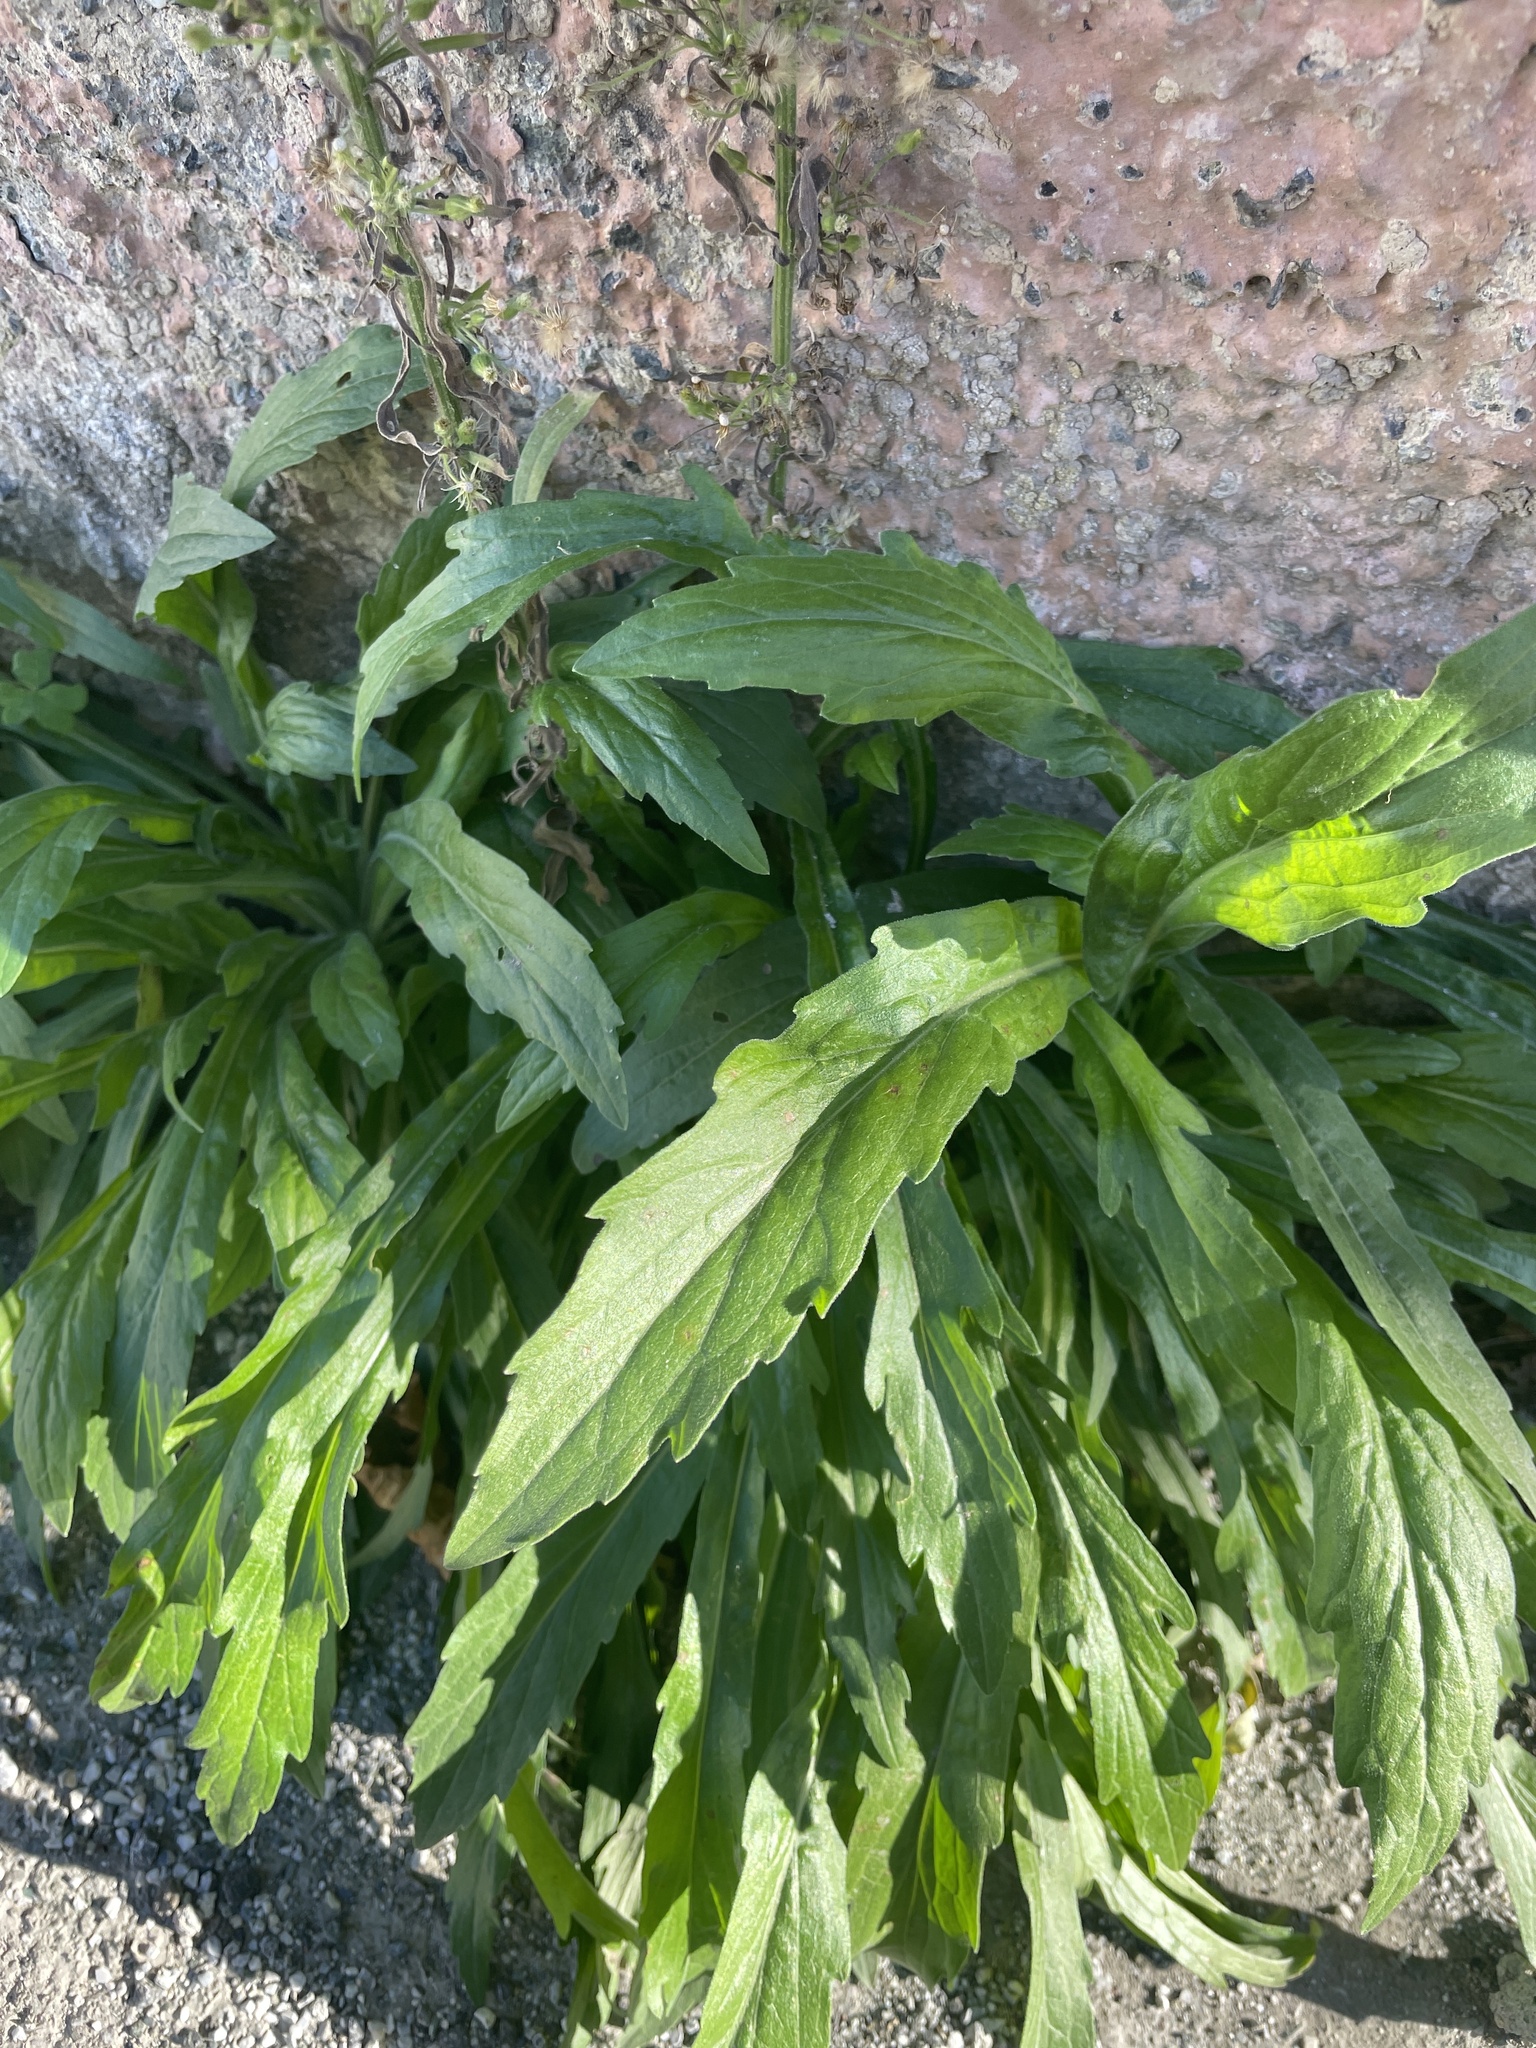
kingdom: Plantae
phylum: Tracheophyta
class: Magnoliopsida
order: Asterales
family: Asteraceae
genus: Erigeron
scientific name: Erigeron sumatrensis
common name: Daisy
